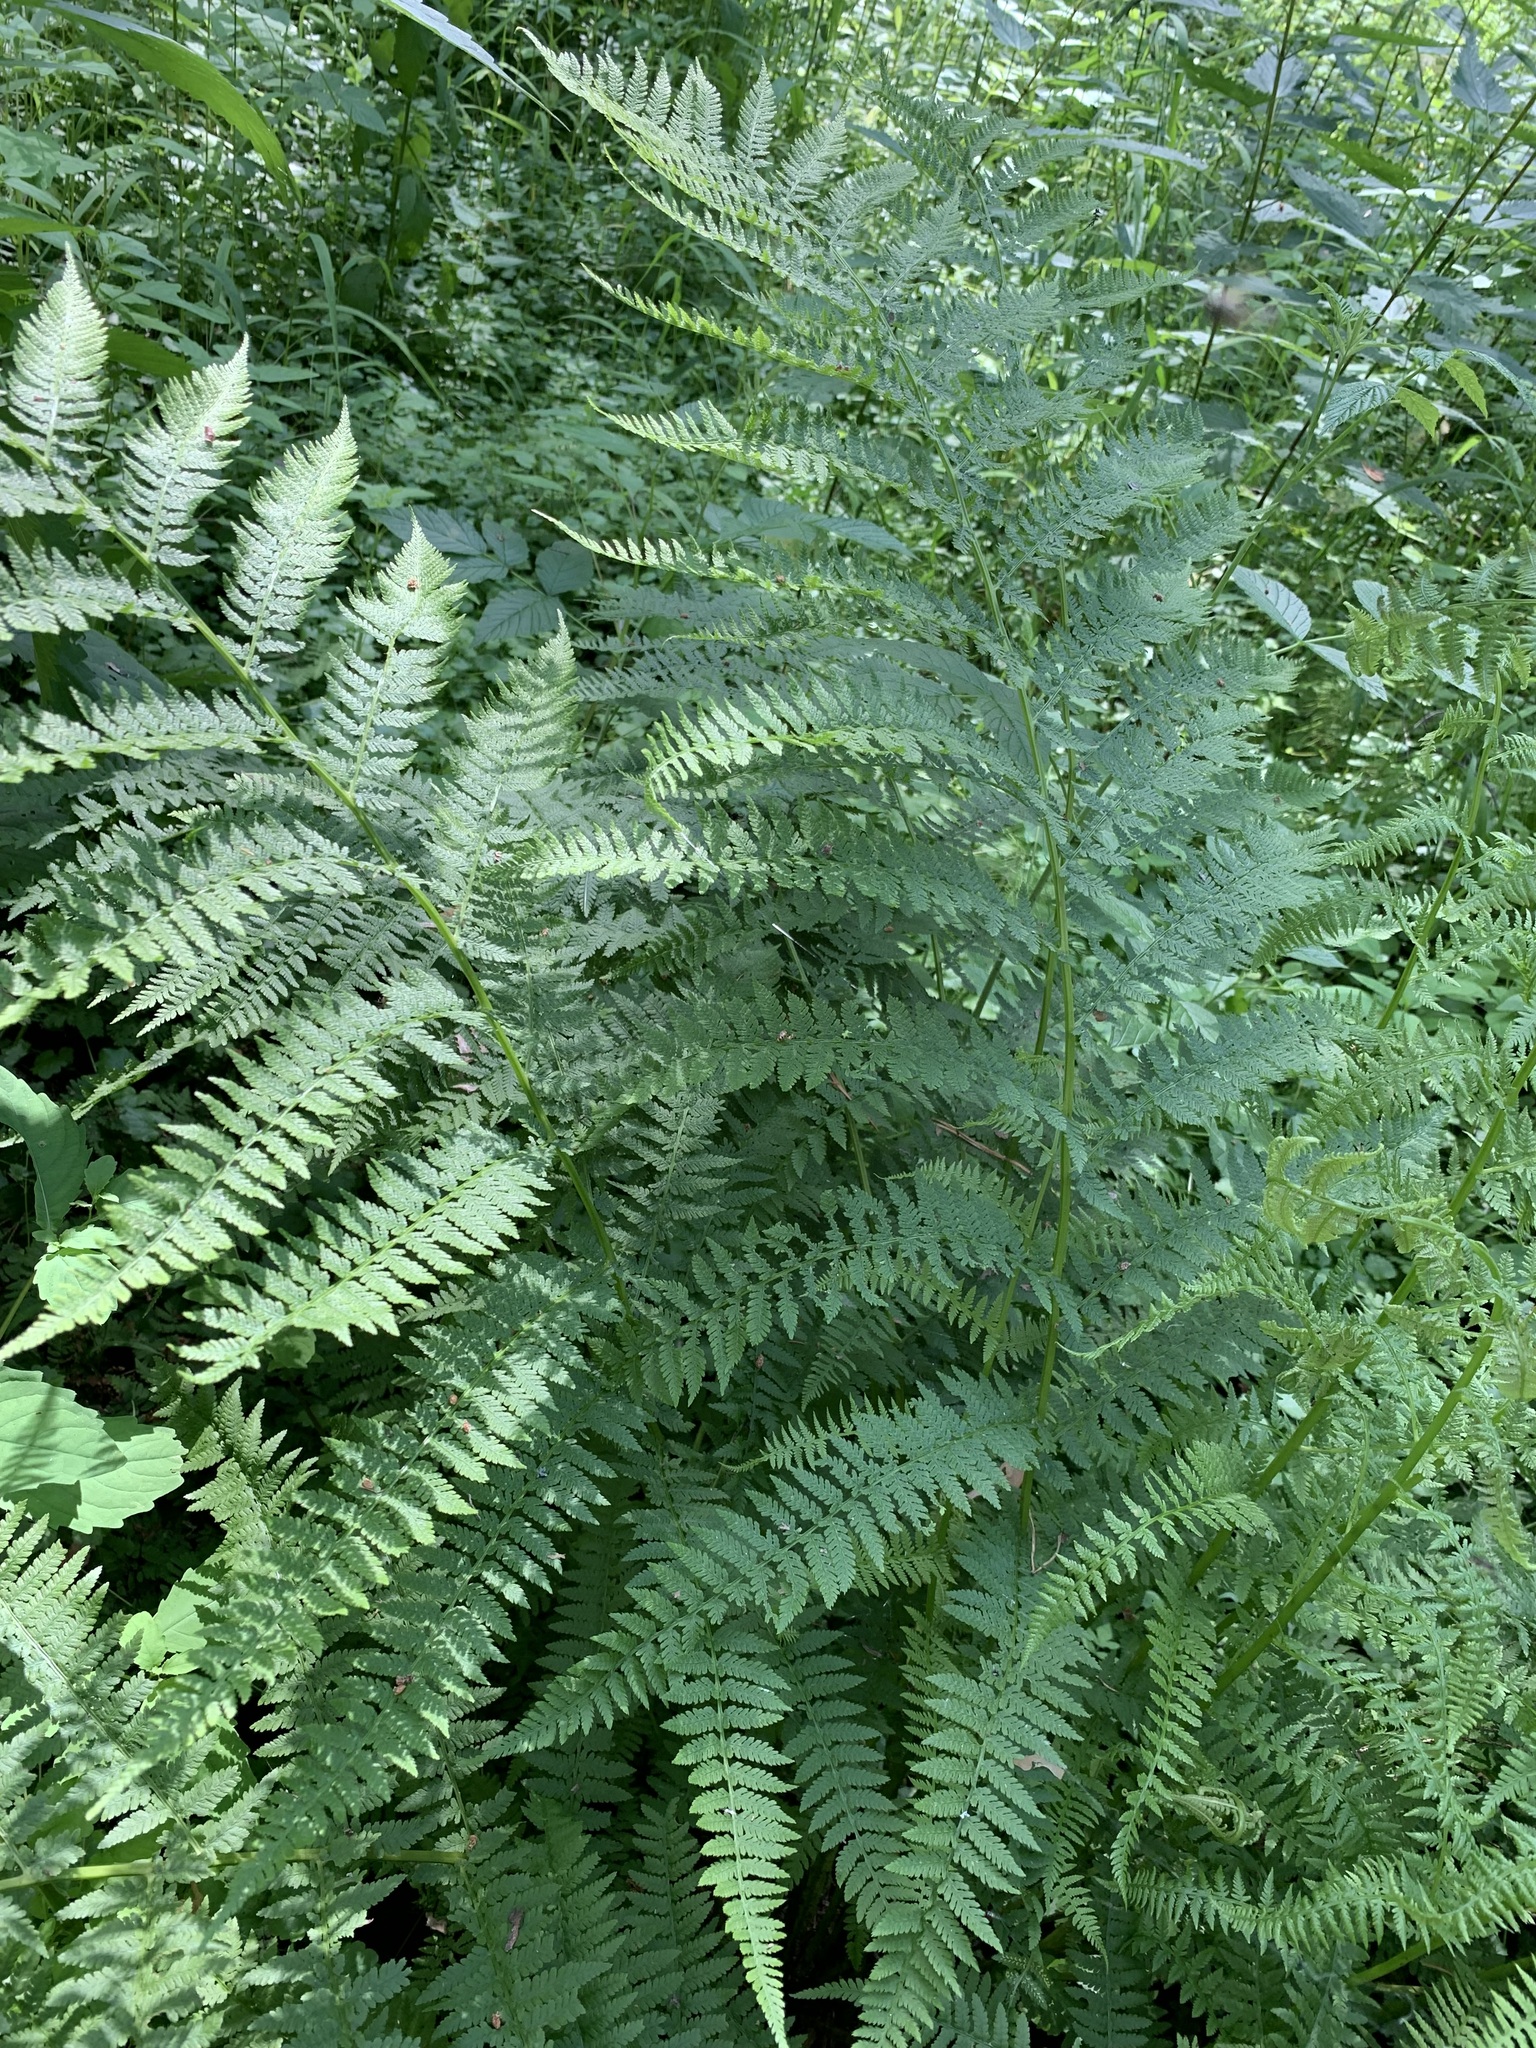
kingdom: Plantae
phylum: Tracheophyta
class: Polypodiopsida
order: Polypodiales
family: Athyriaceae
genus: Athyrium
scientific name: Athyrium filix-femina
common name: Lady fern
